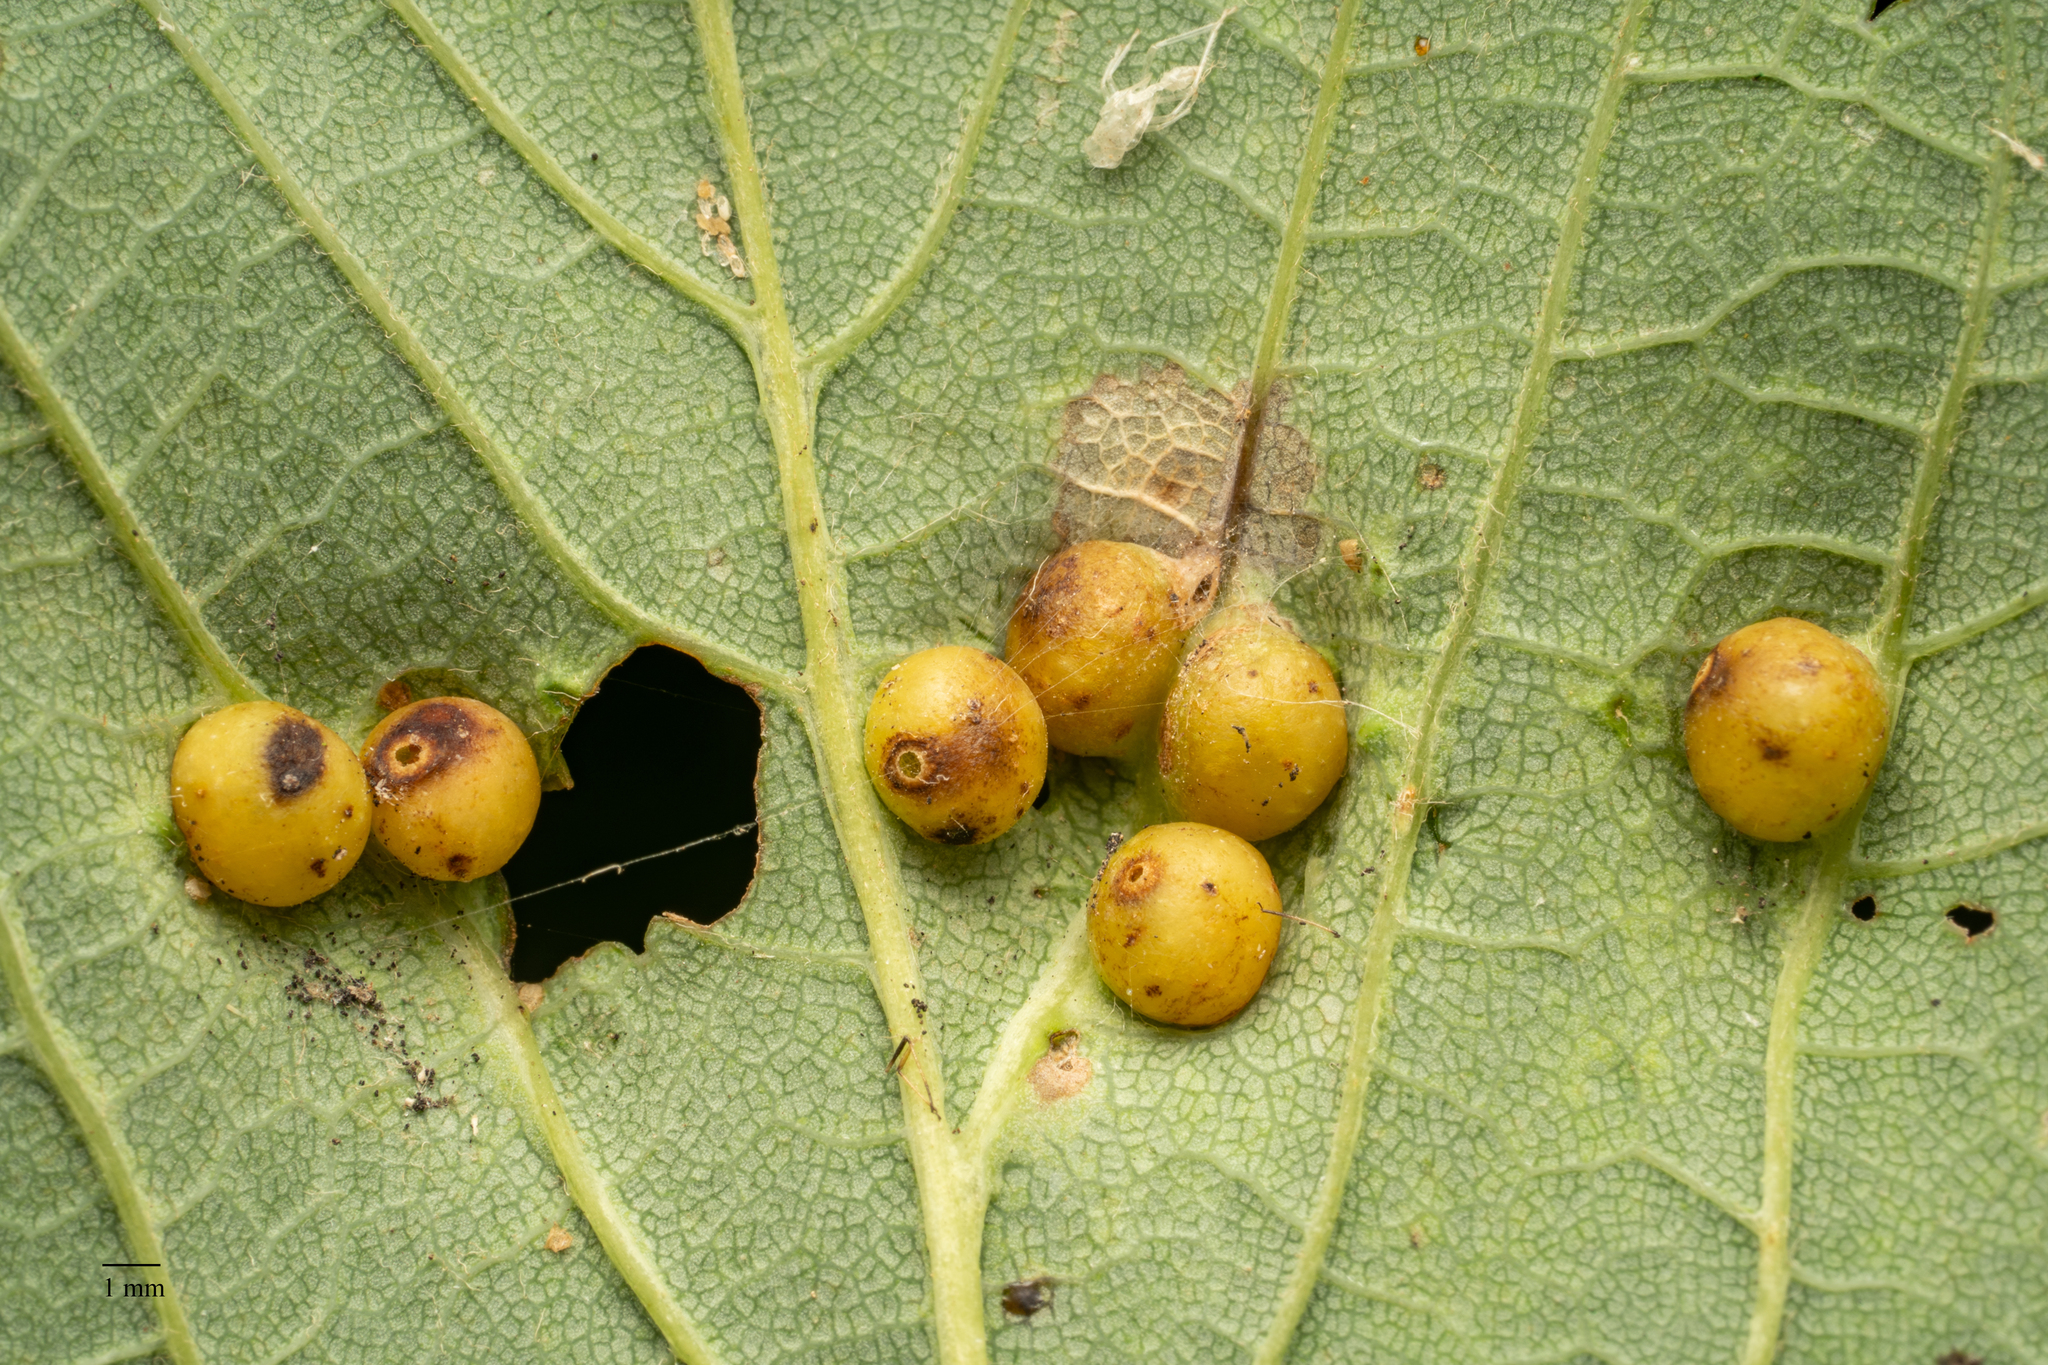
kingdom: Animalia
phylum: Arthropoda
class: Insecta
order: Hymenoptera
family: Cynipidae
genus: Pediaspis
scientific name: Pediaspis aceris
